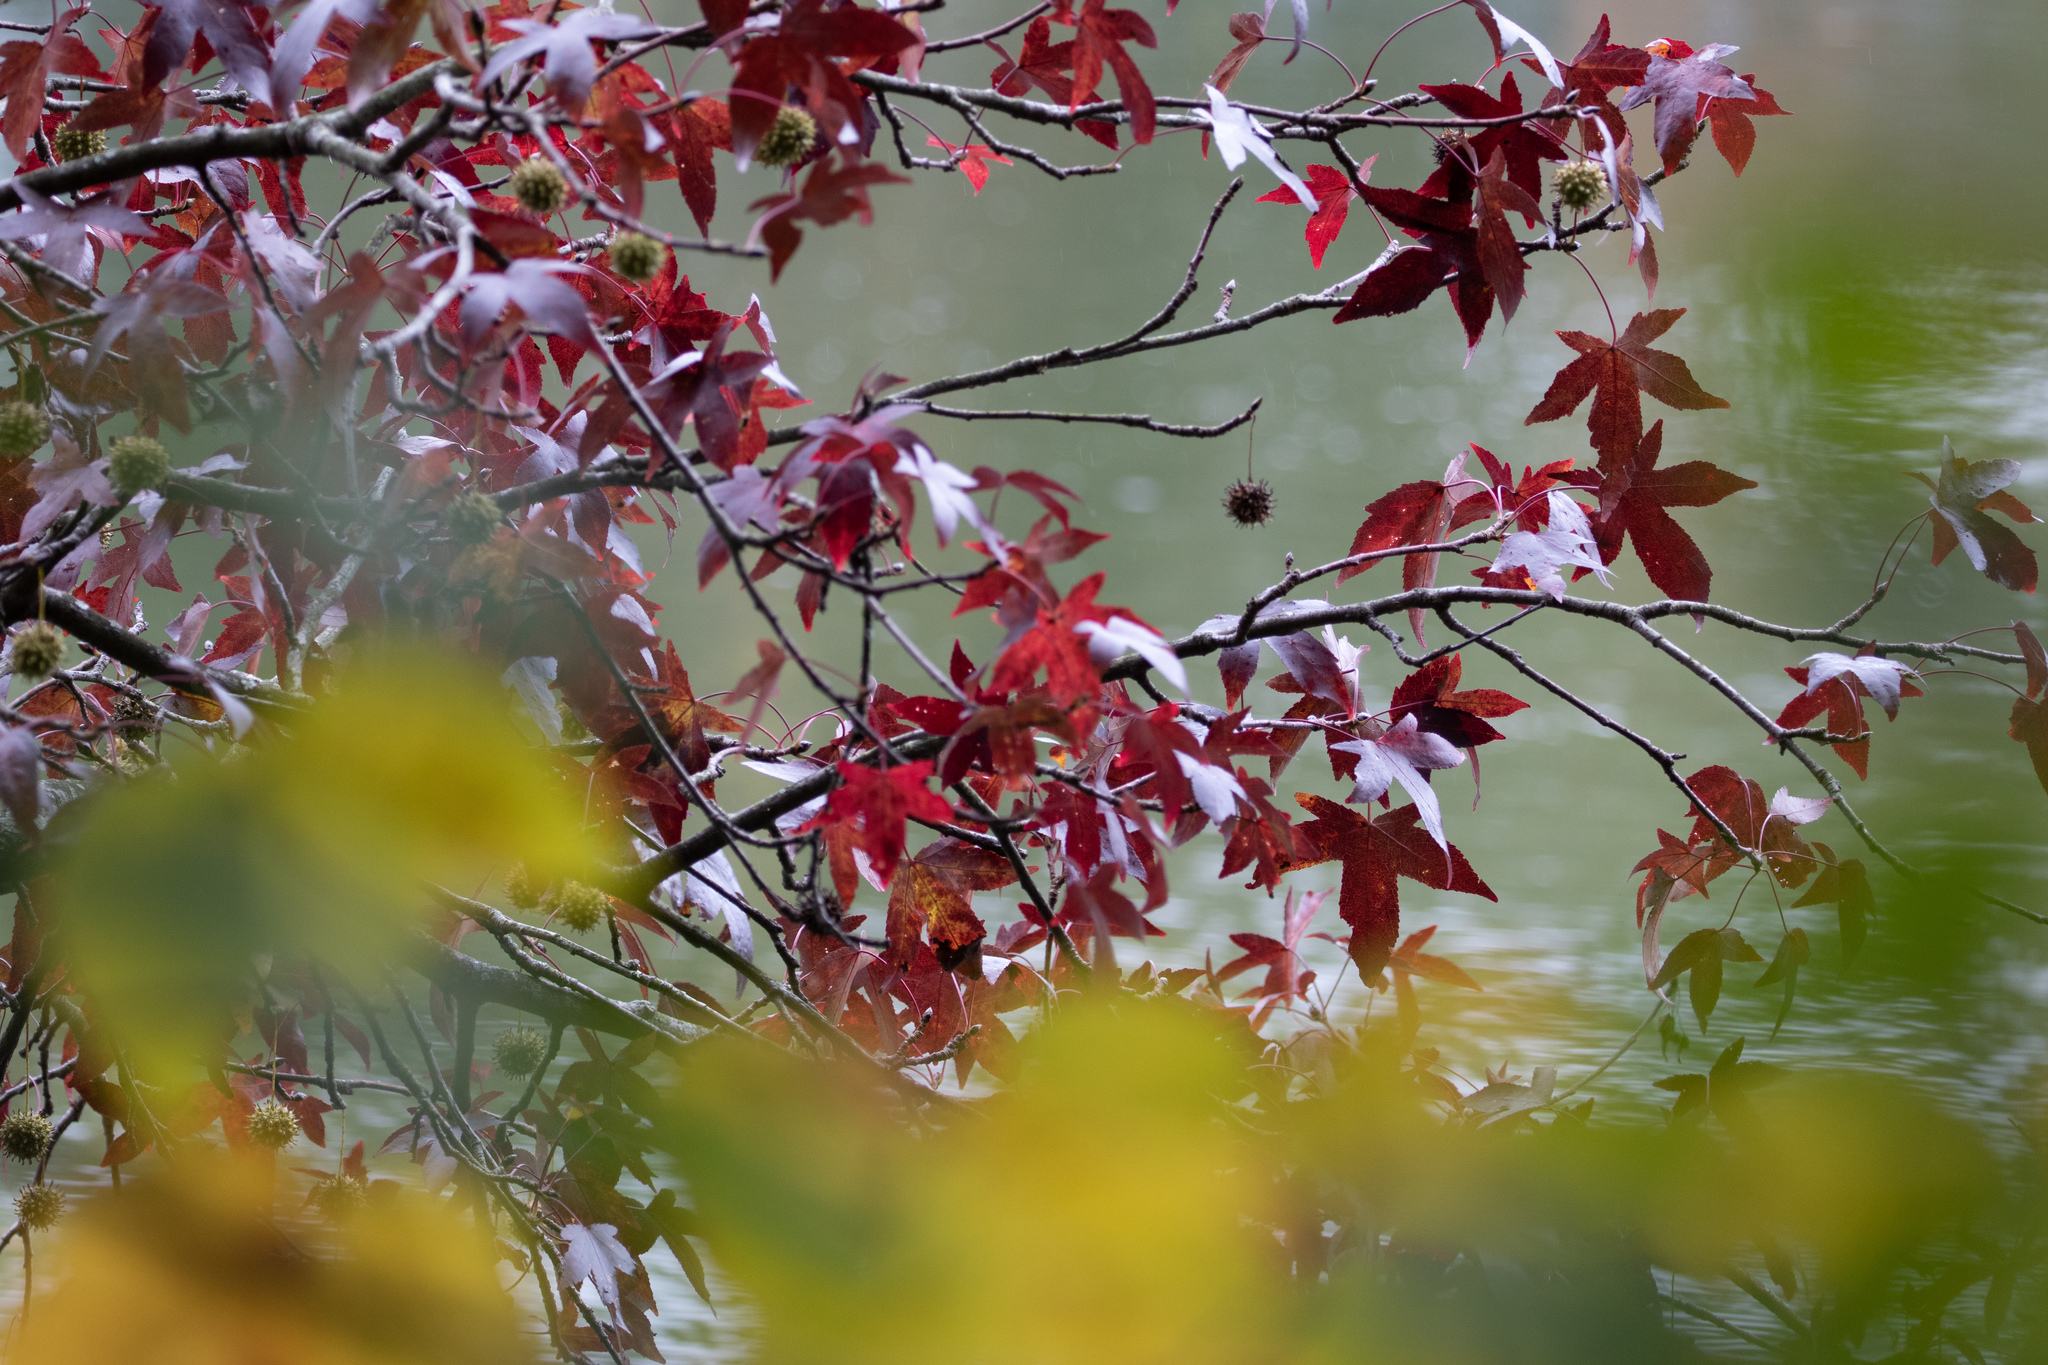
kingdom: Plantae
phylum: Tracheophyta
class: Magnoliopsida
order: Saxifragales
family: Altingiaceae
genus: Liquidambar
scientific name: Liquidambar styraciflua
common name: Sweet gum
